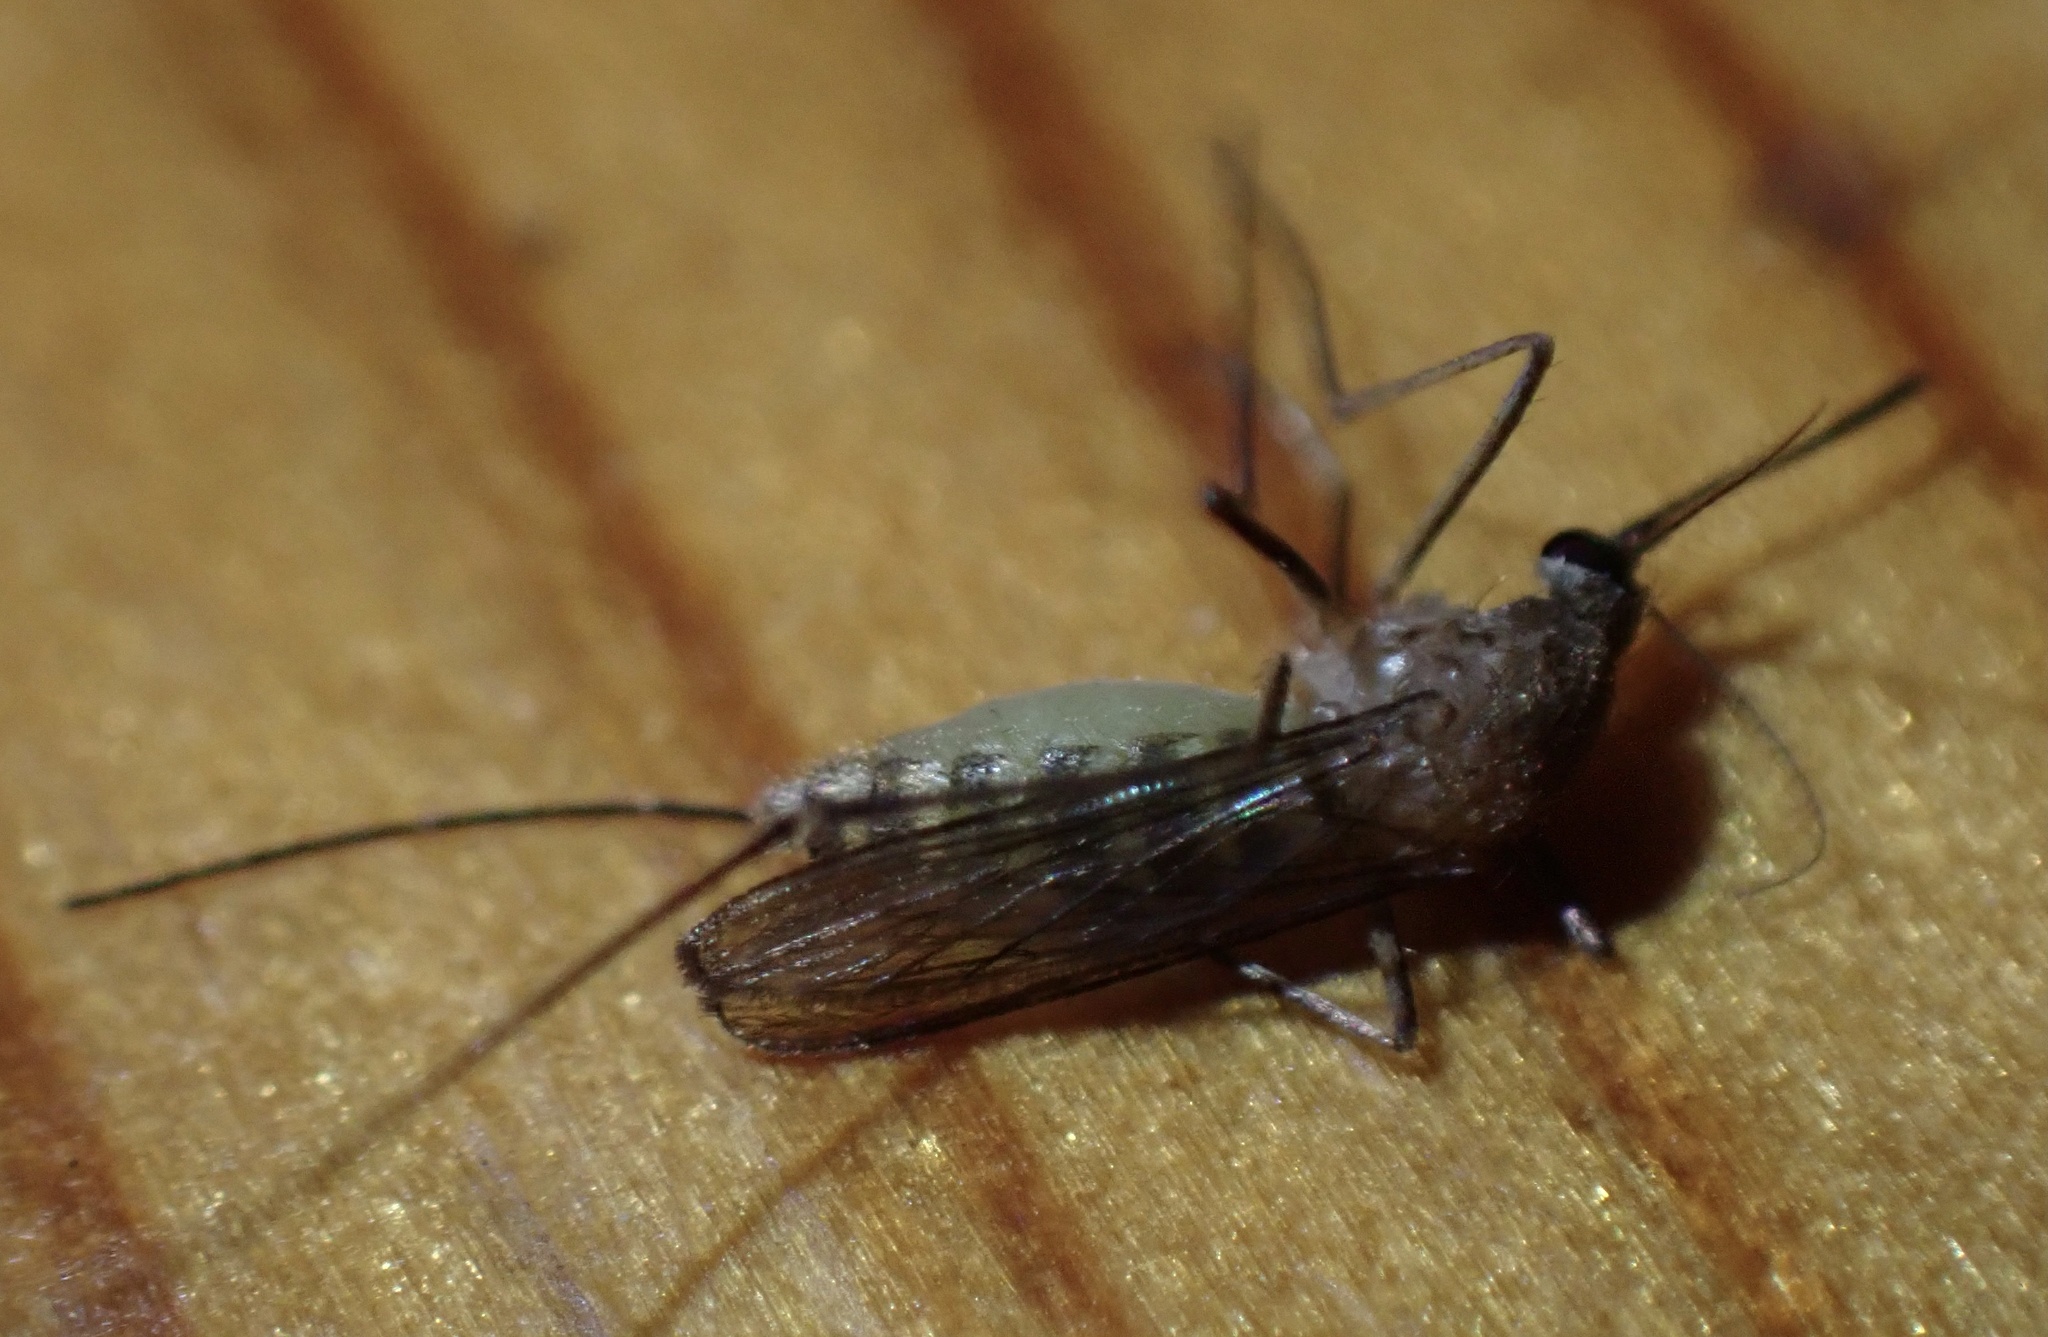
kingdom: Animalia
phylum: Arthropoda
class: Insecta
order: Diptera
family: Culicidae
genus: Culex
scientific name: Culex
